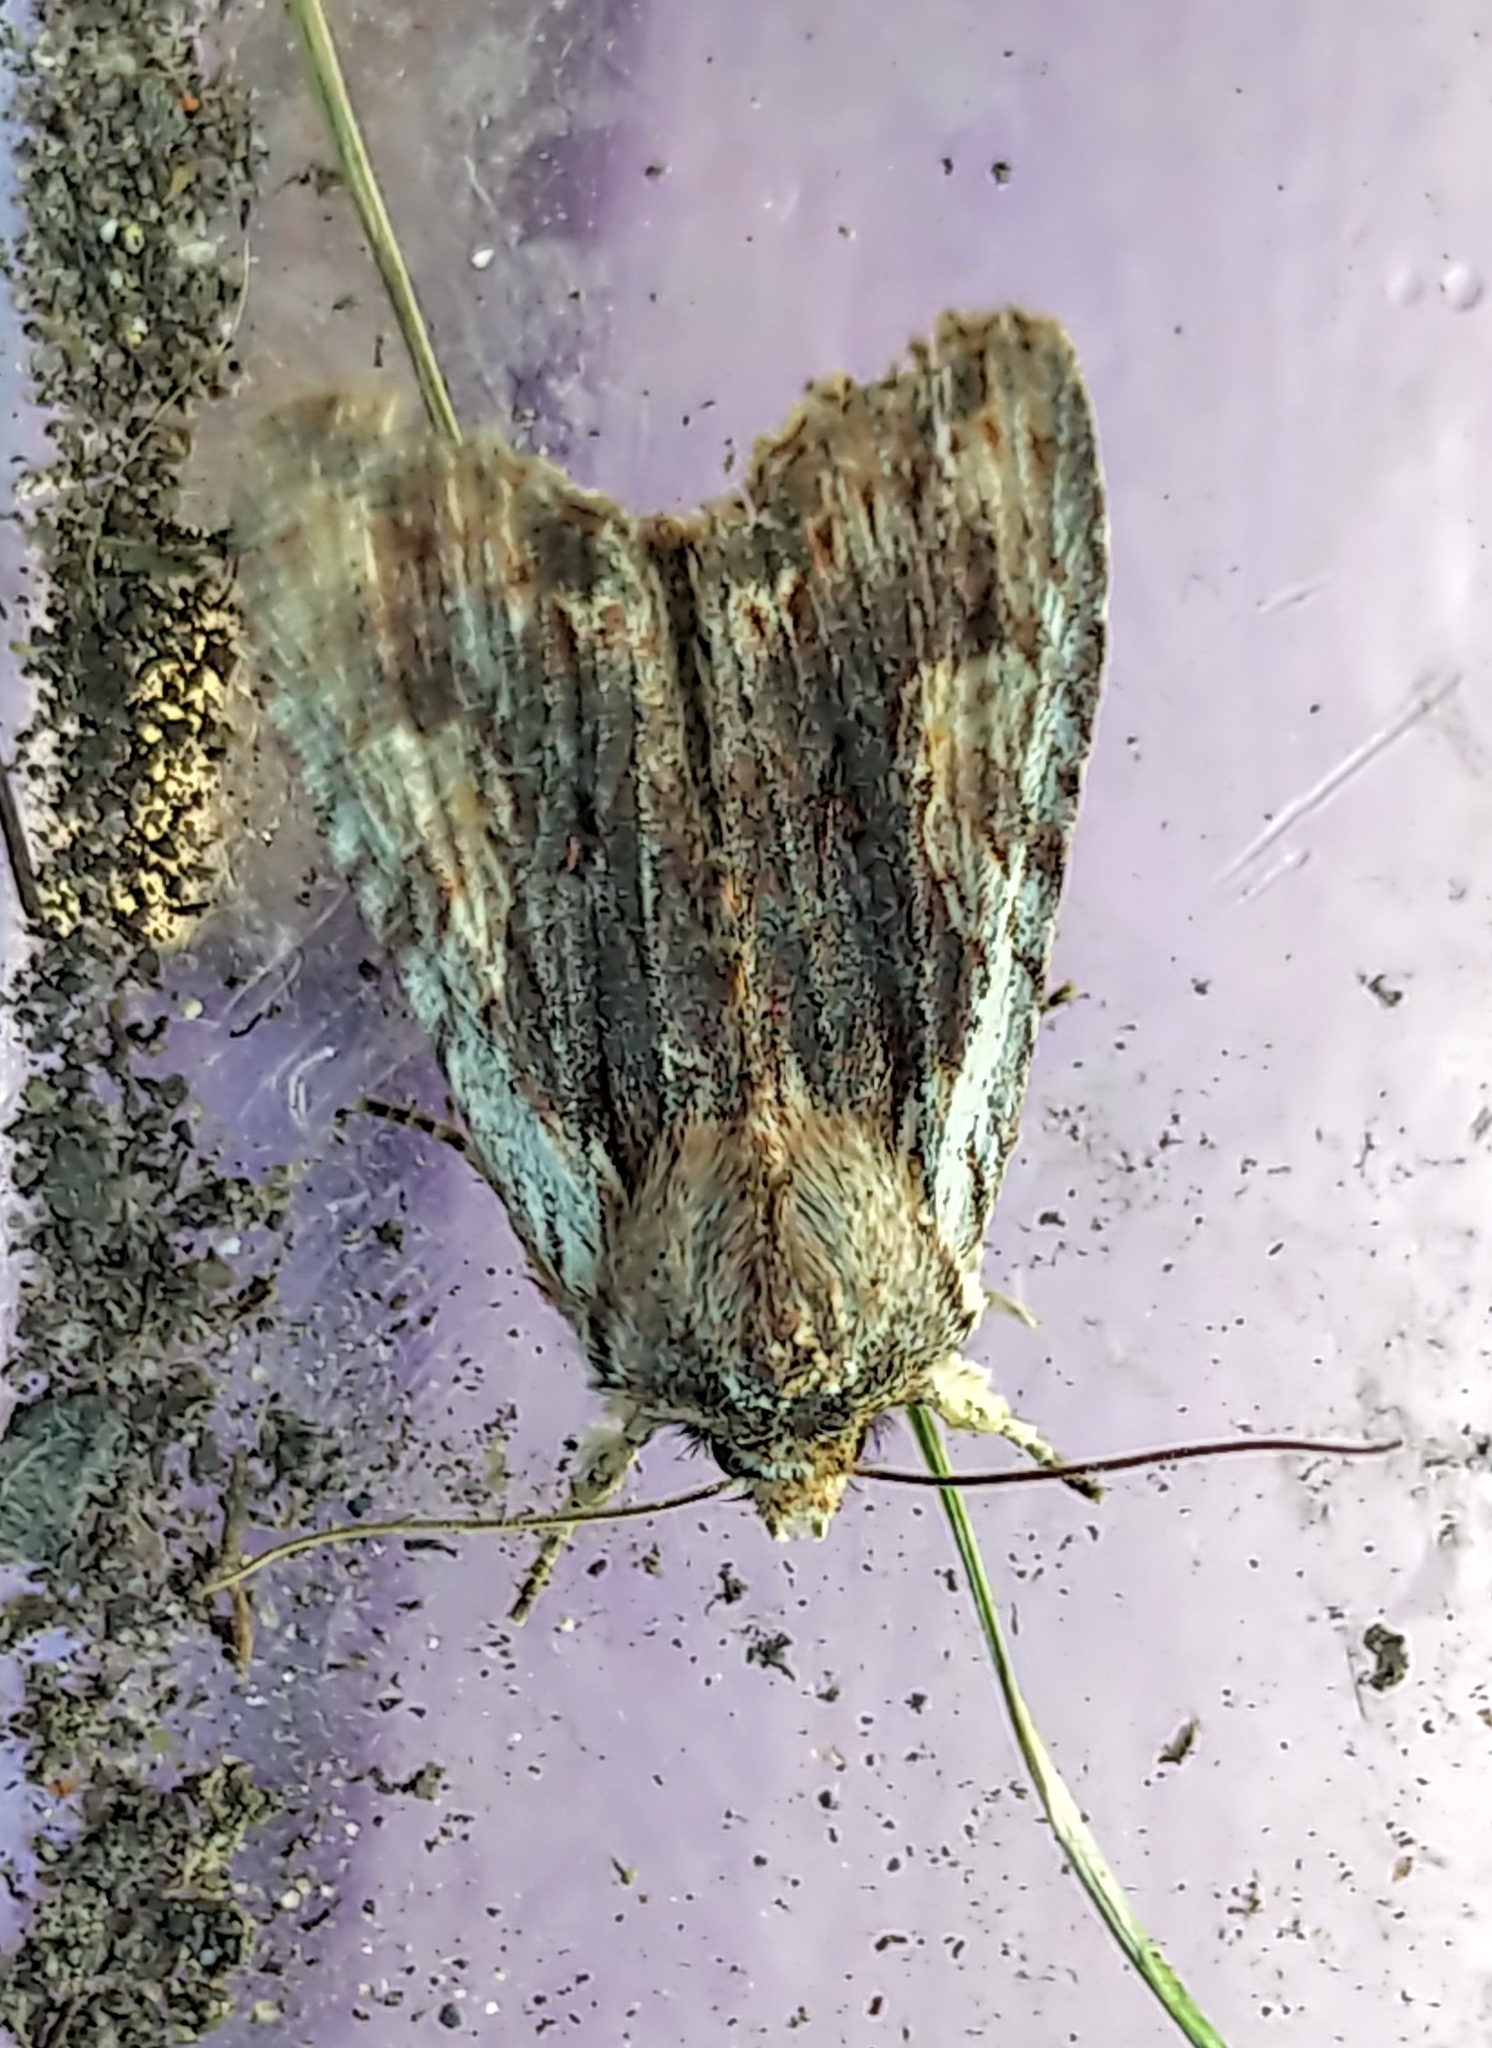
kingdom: Animalia
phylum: Arthropoda
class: Insecta
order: Lepidoptera
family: Noctuidae
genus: Lithophane
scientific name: Lithophane petulca
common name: Wanton pinion
